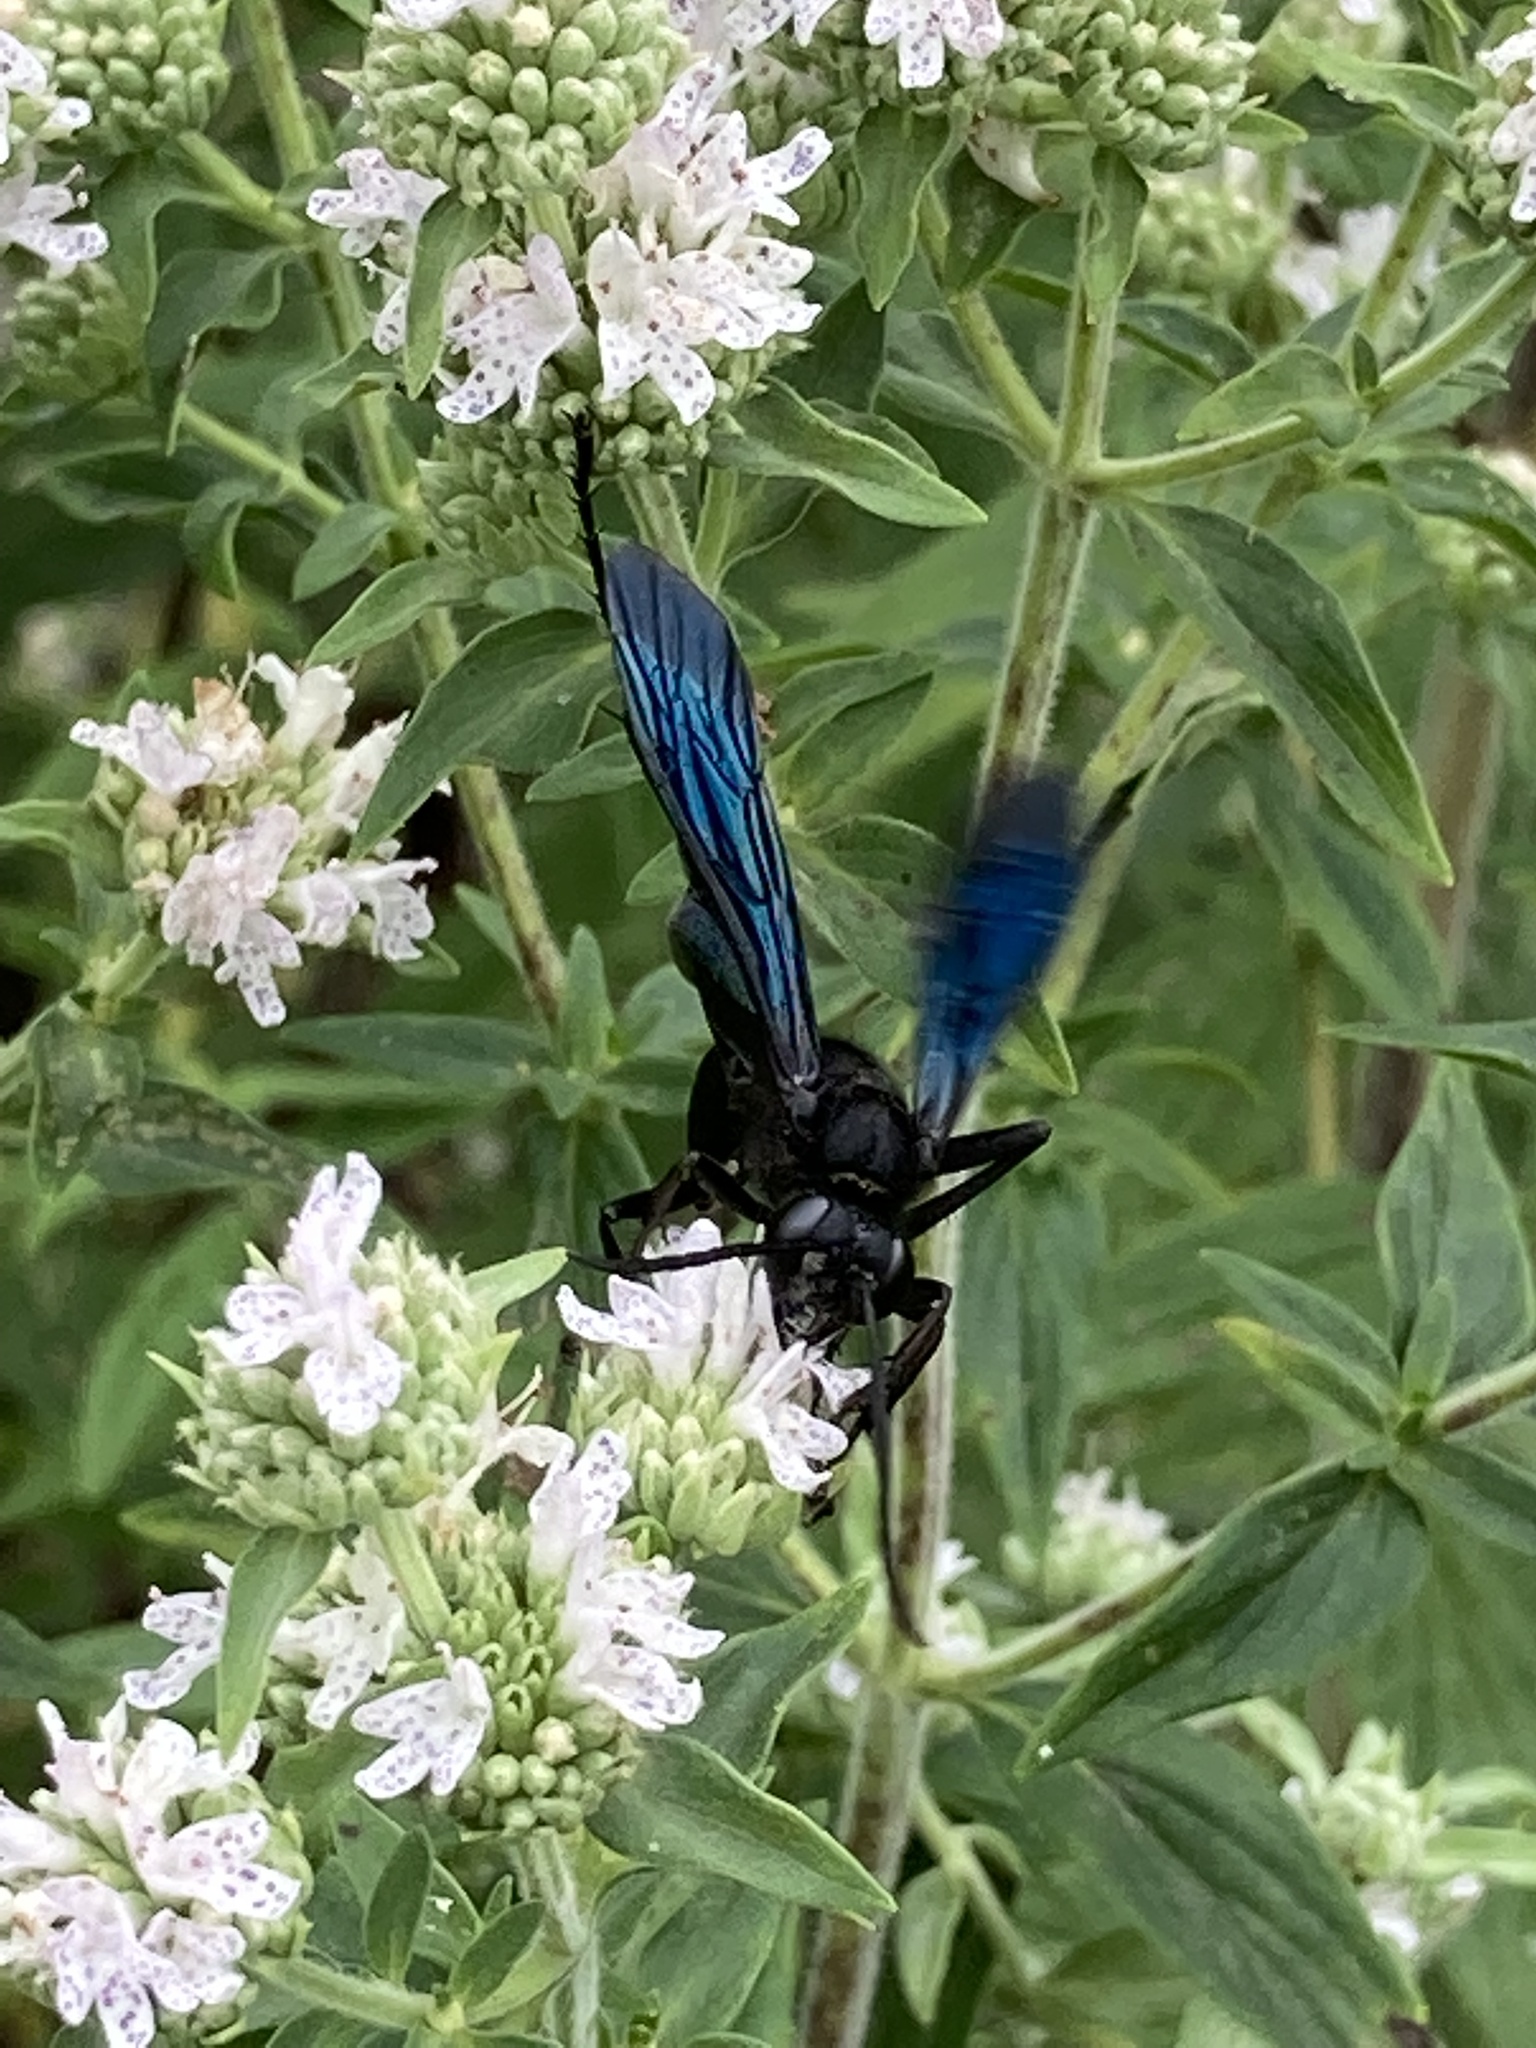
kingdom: Animalia
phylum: Arthropoda
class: Insecta
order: Hymenoptera
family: Sphecidae
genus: Sphex
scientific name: Sphex pensylvanicus
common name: Great black digger wasp
